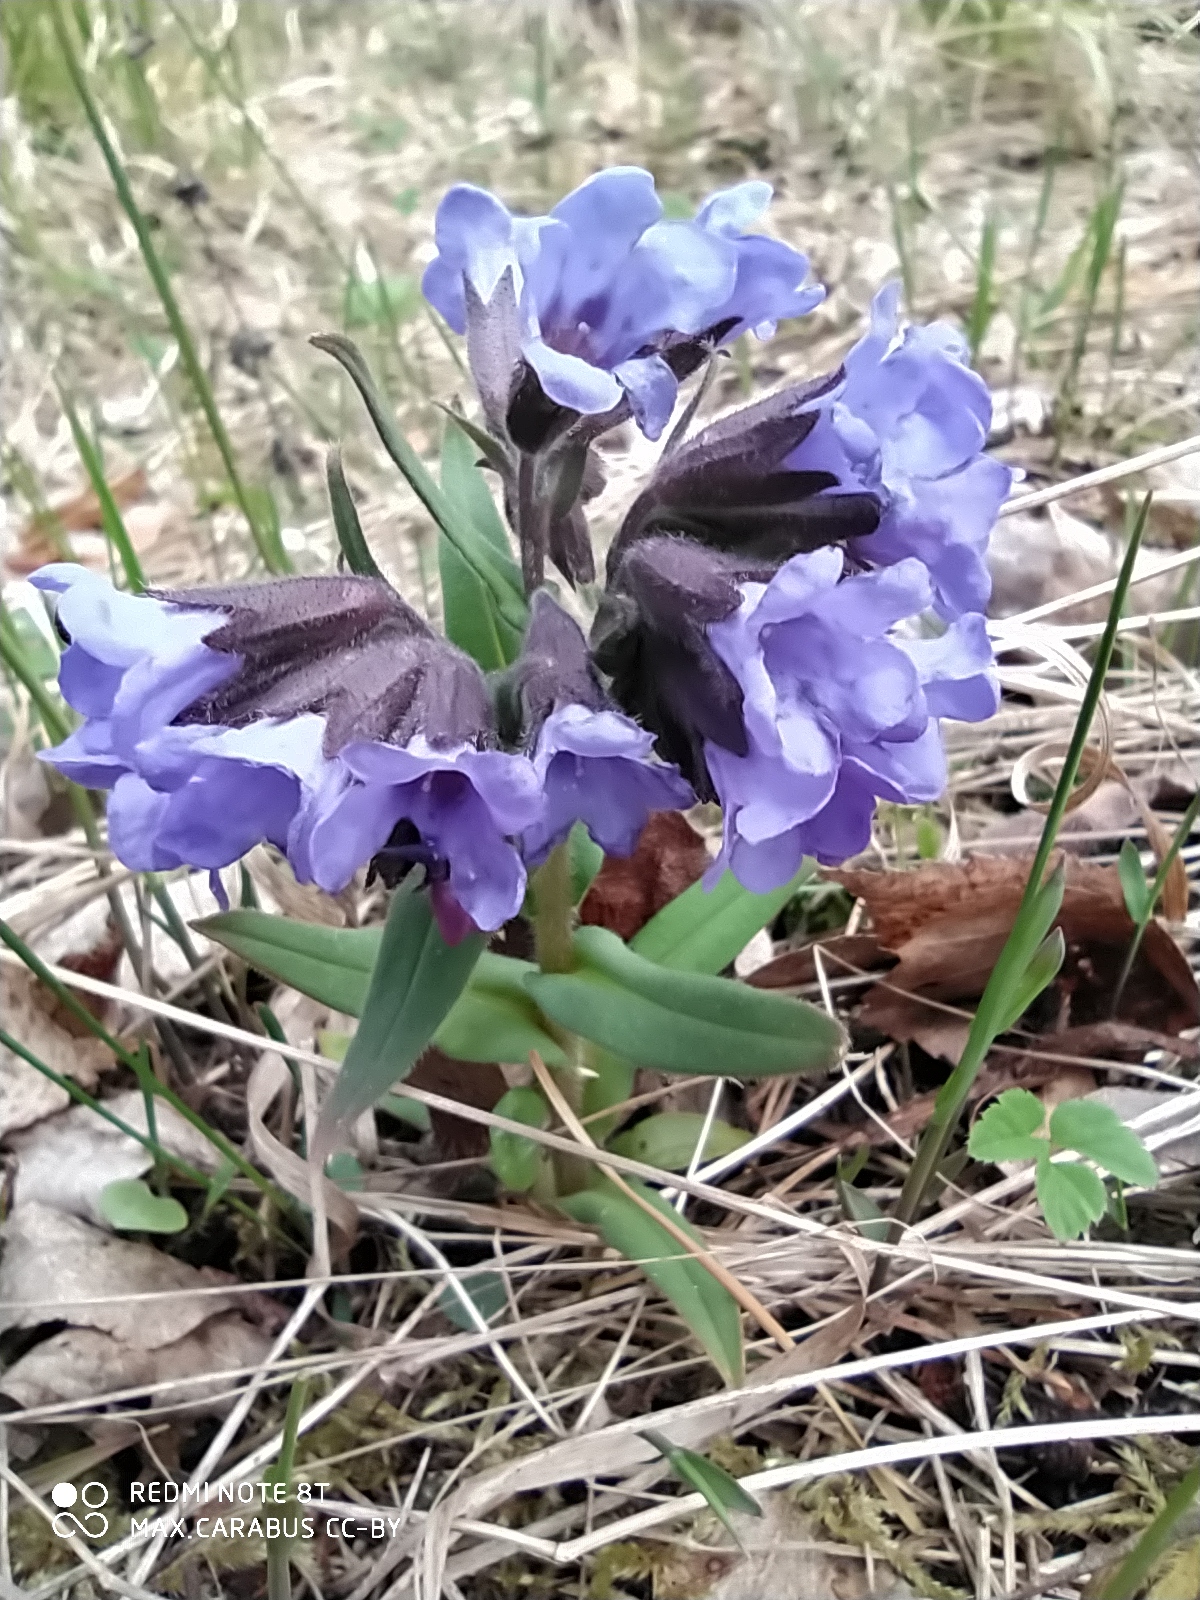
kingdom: Plantae
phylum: Tracheophyta
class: Magnoliopsida
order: Boraginales
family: Boraginaceae
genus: Pulmonaria
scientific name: Pulmonaria angustifolia
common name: Blue cowslip
